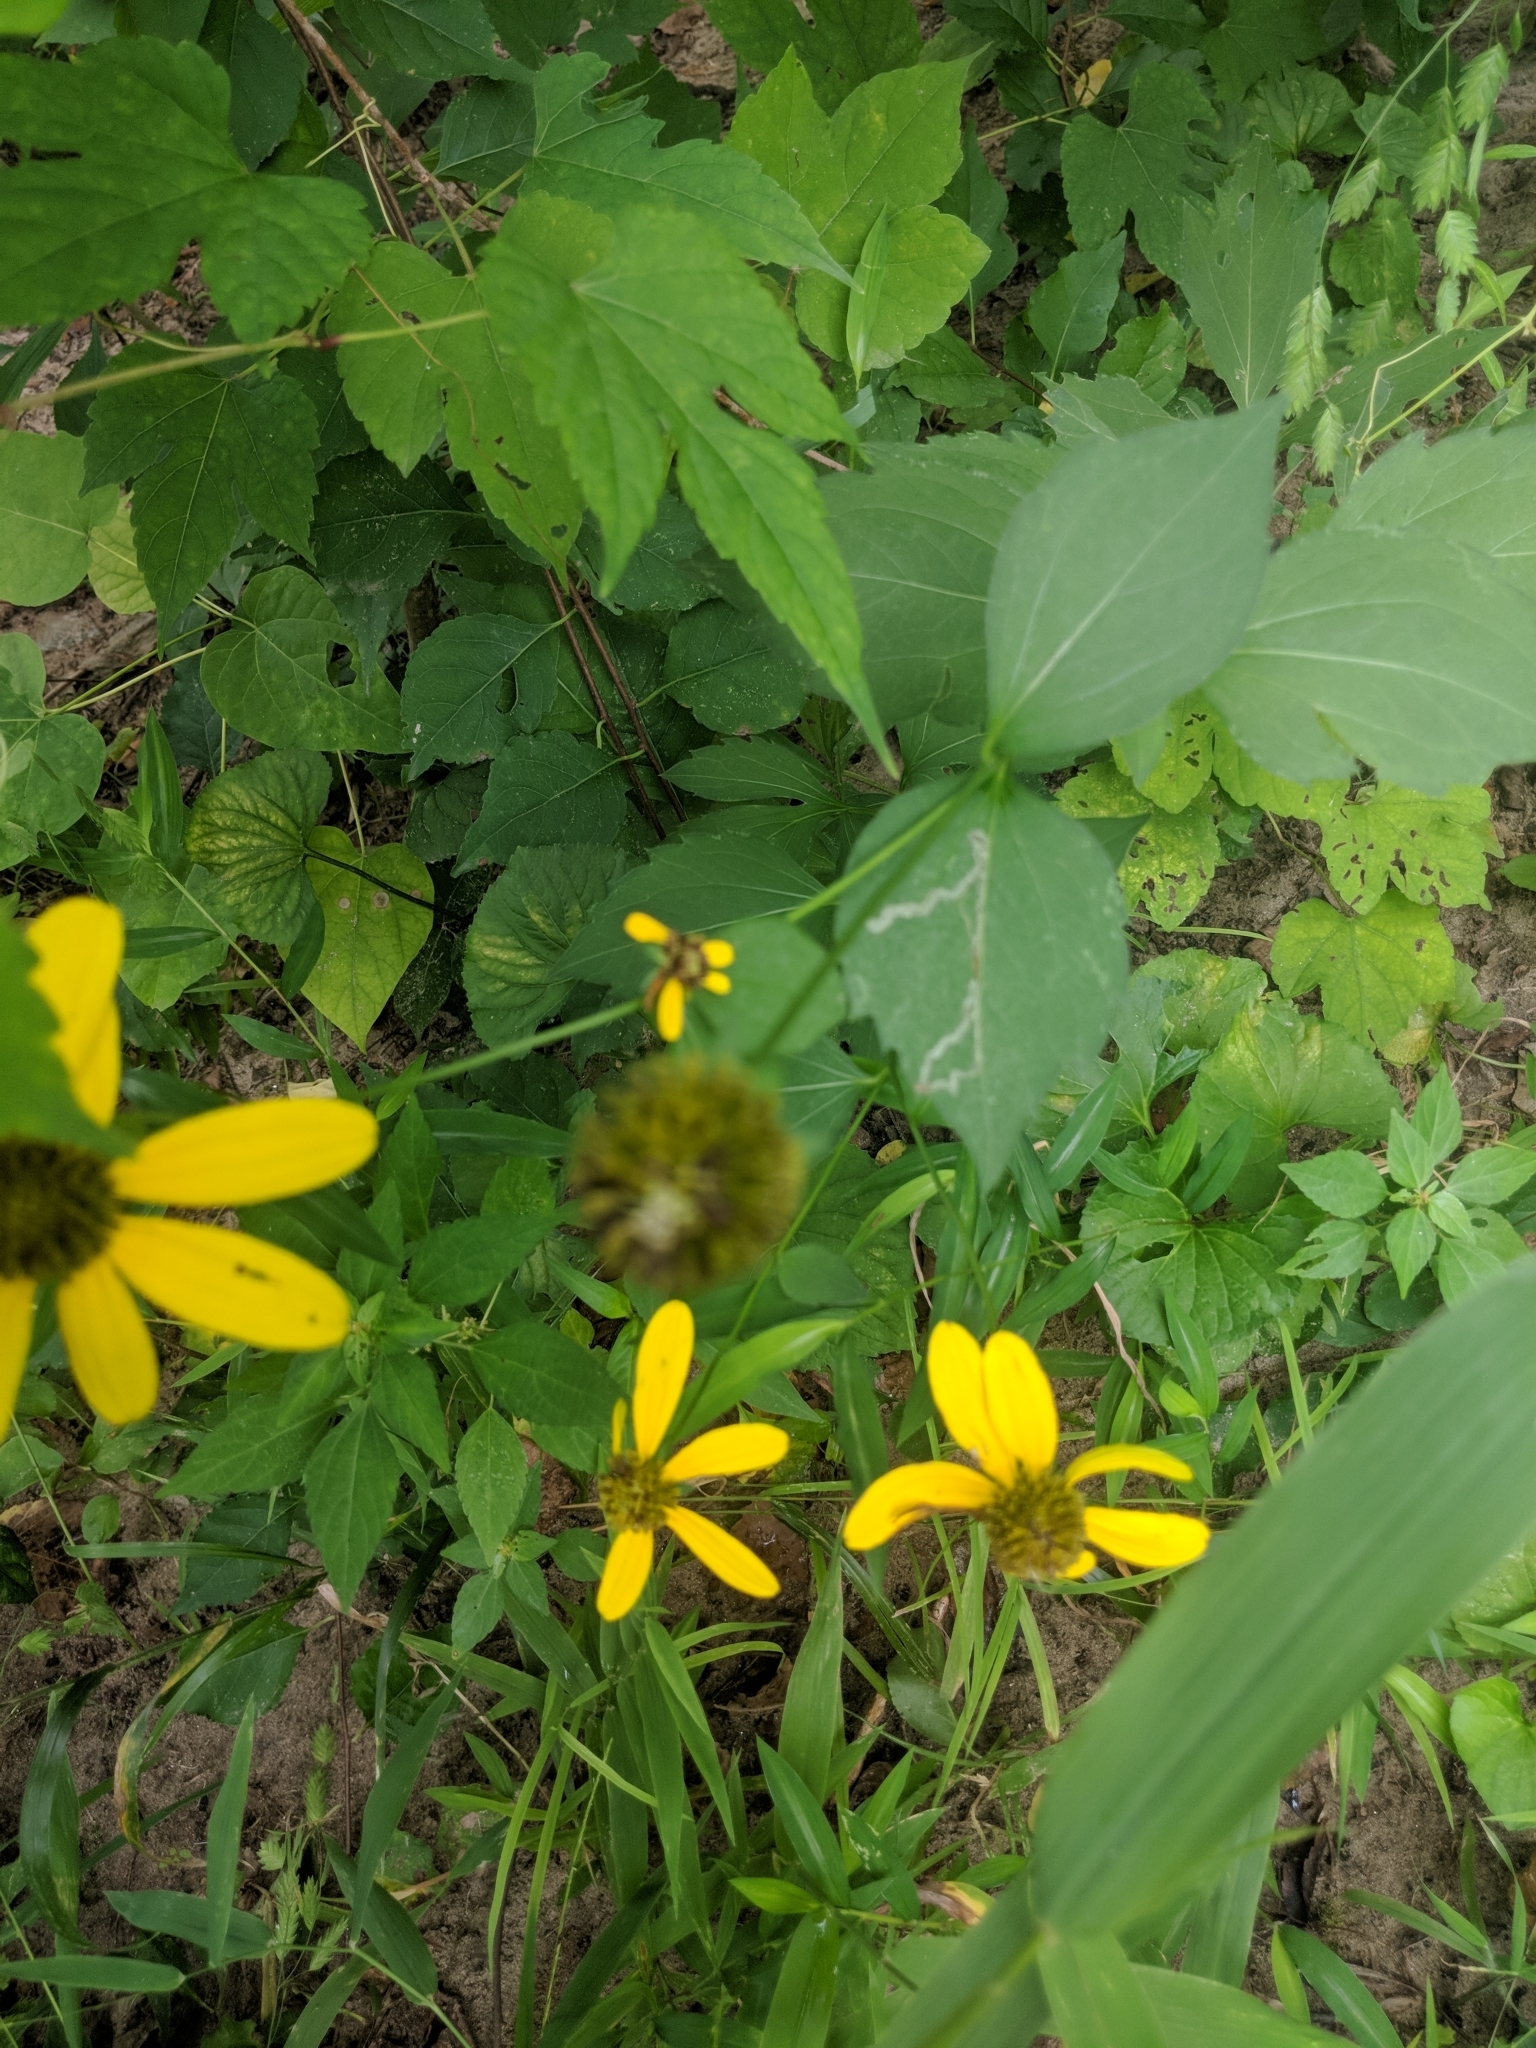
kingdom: Plantae
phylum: Tracheophyta
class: Magnoliopsida
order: Asterales
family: Asteraceae
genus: Rudbeckia
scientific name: Rudbeckia laciniata
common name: Coneflower
